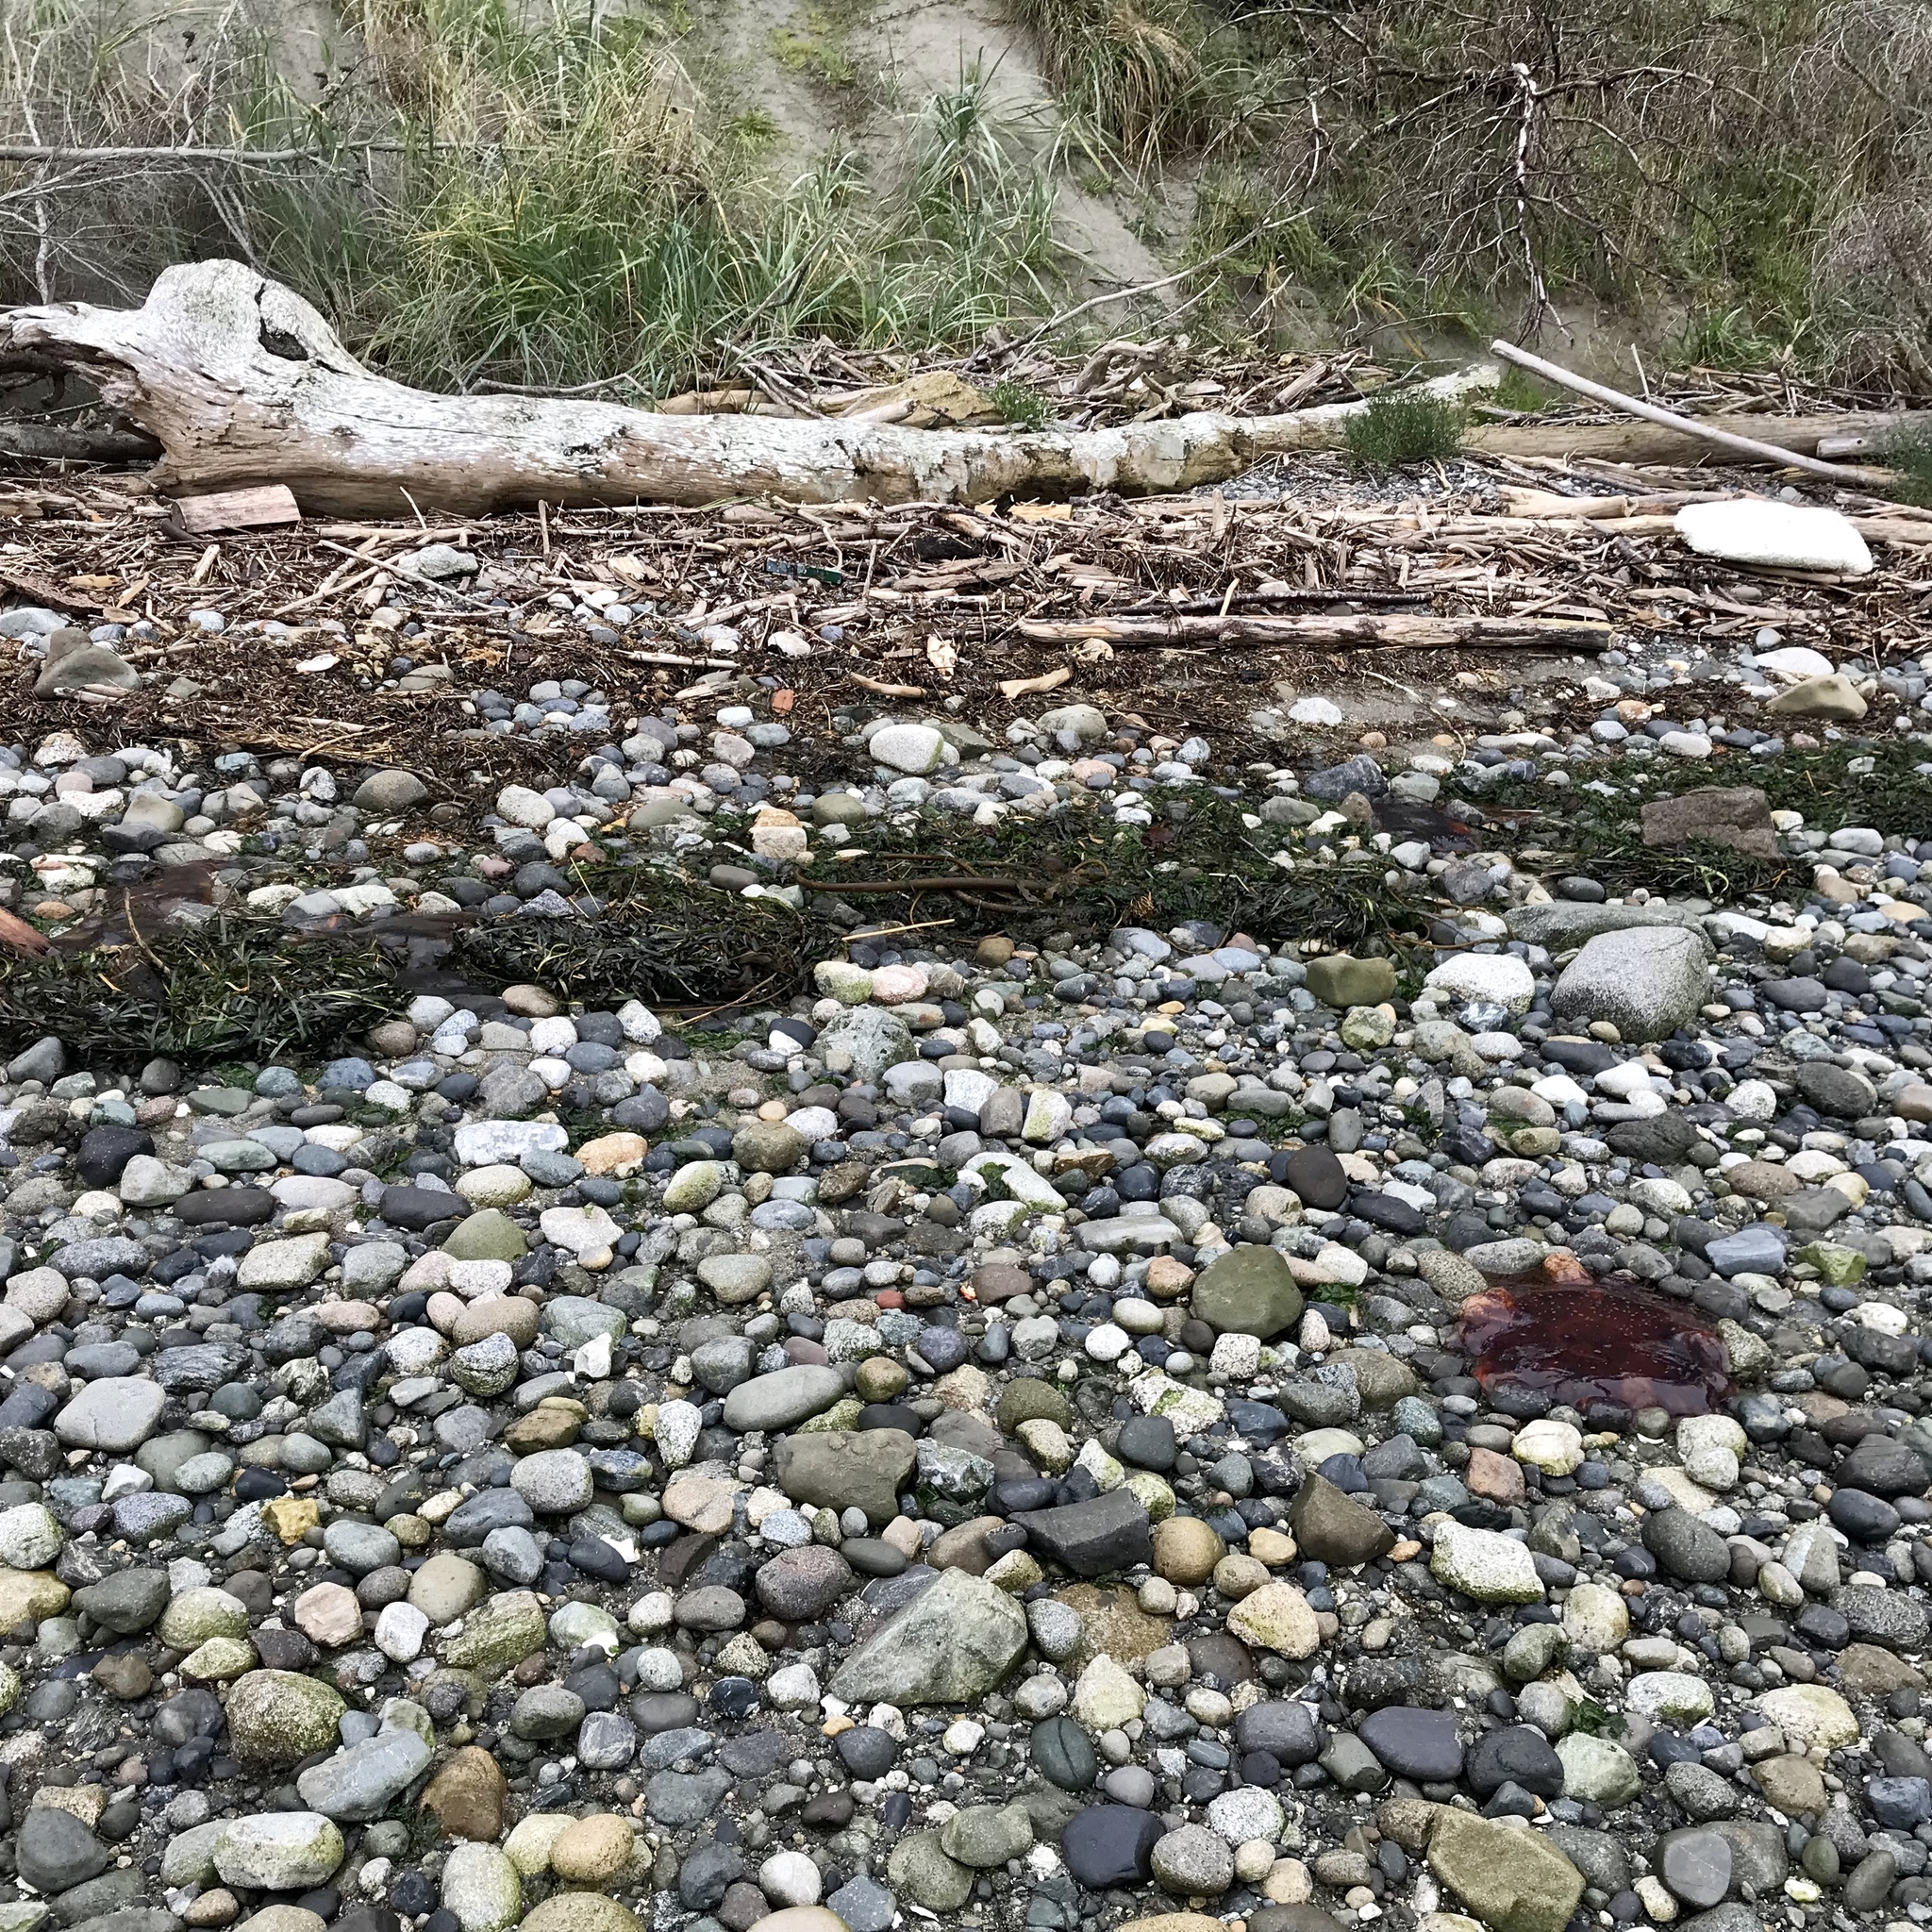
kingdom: Animalia
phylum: Cnidaria
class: Scyphozoa
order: Semaeostomeae
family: Cyaneidae
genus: Cyanea
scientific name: Cyanea ferruginea
